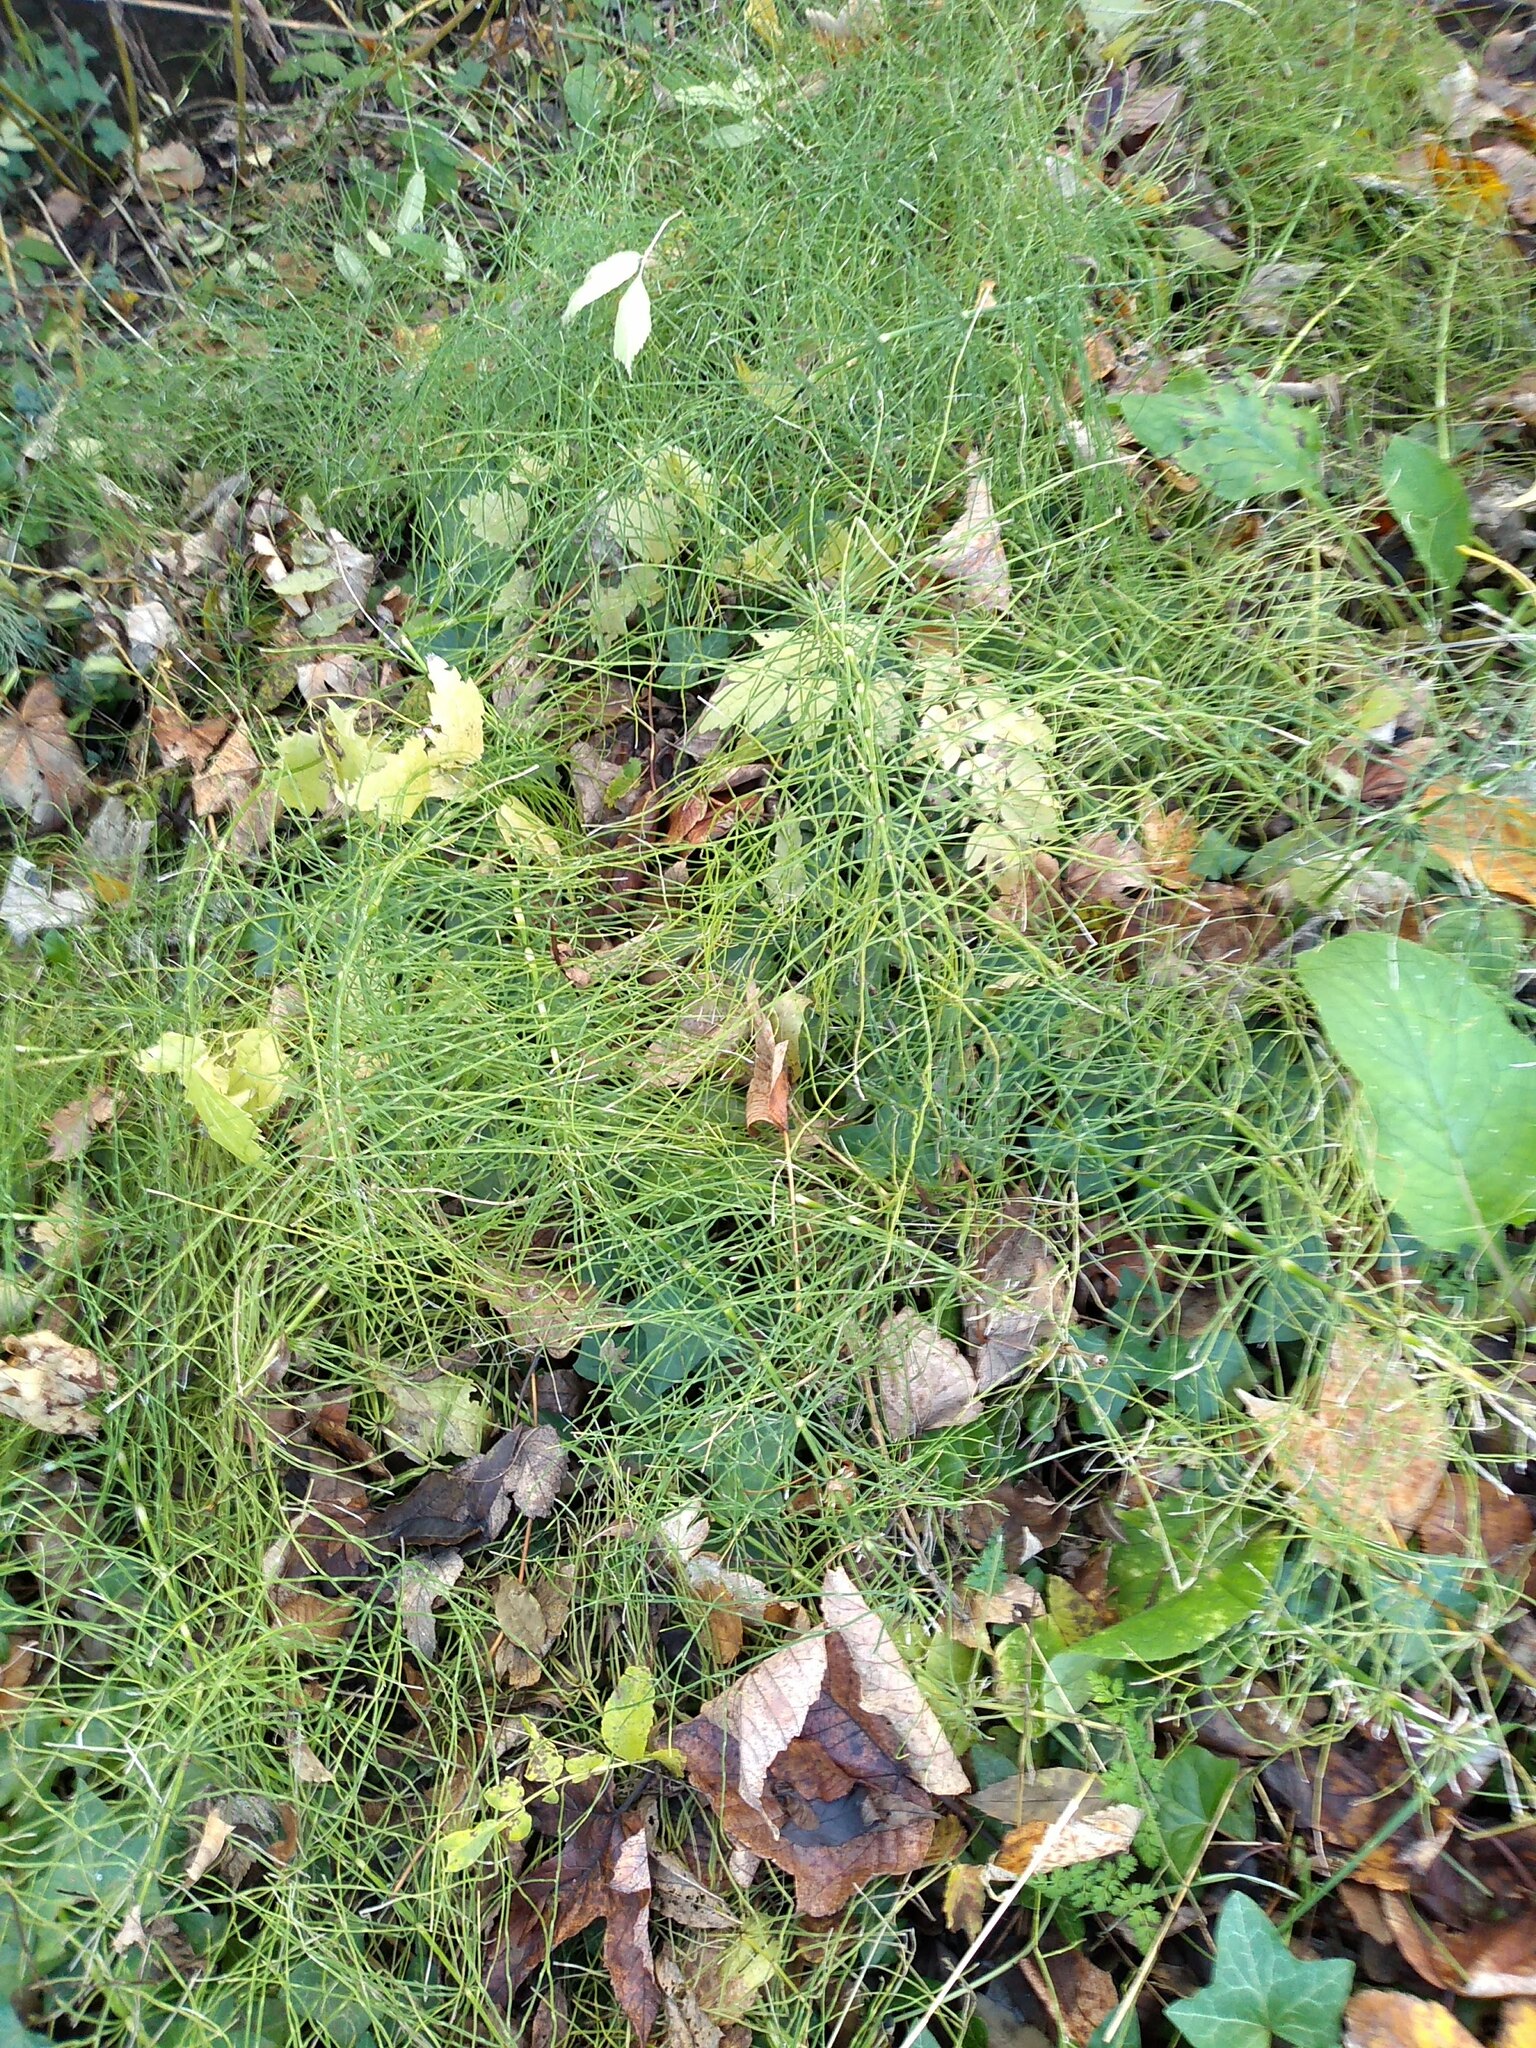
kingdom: Plantae
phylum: Tracheophyta
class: Polypodiopsida
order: Equisetales
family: Equisetaceae
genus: Equisetum
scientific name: Equisetum arvense
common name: Field horsetail
